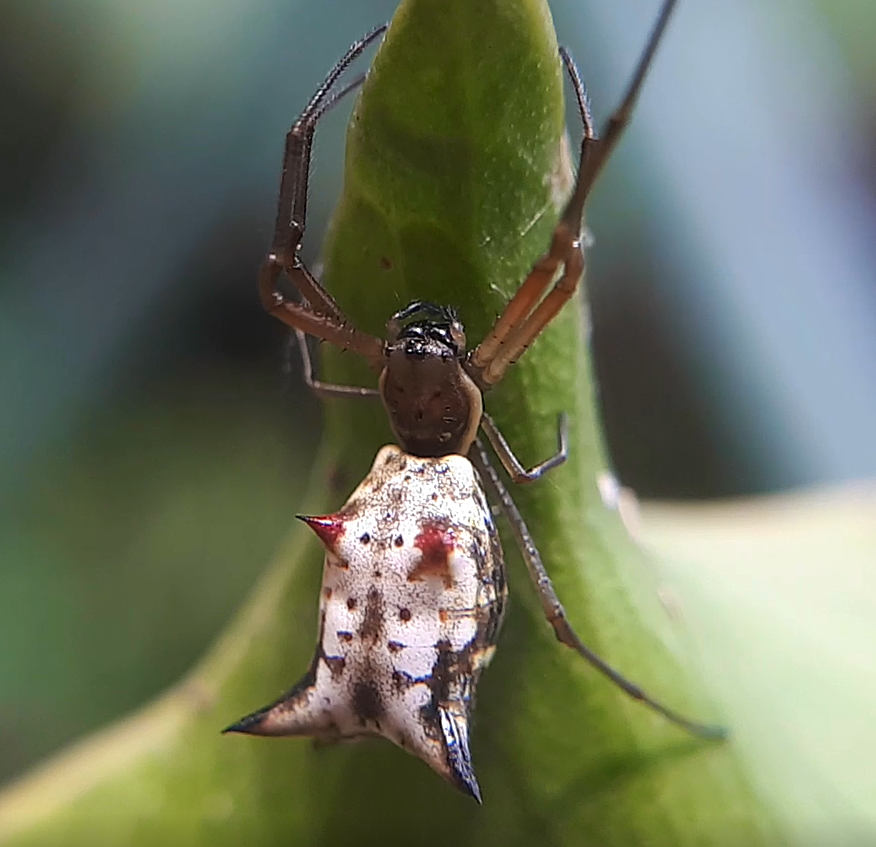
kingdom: Animalia
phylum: Arthropoda
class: Arachnida
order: Araneae
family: Araneidae
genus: Micrathena
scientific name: Micrathena nigrichelis
